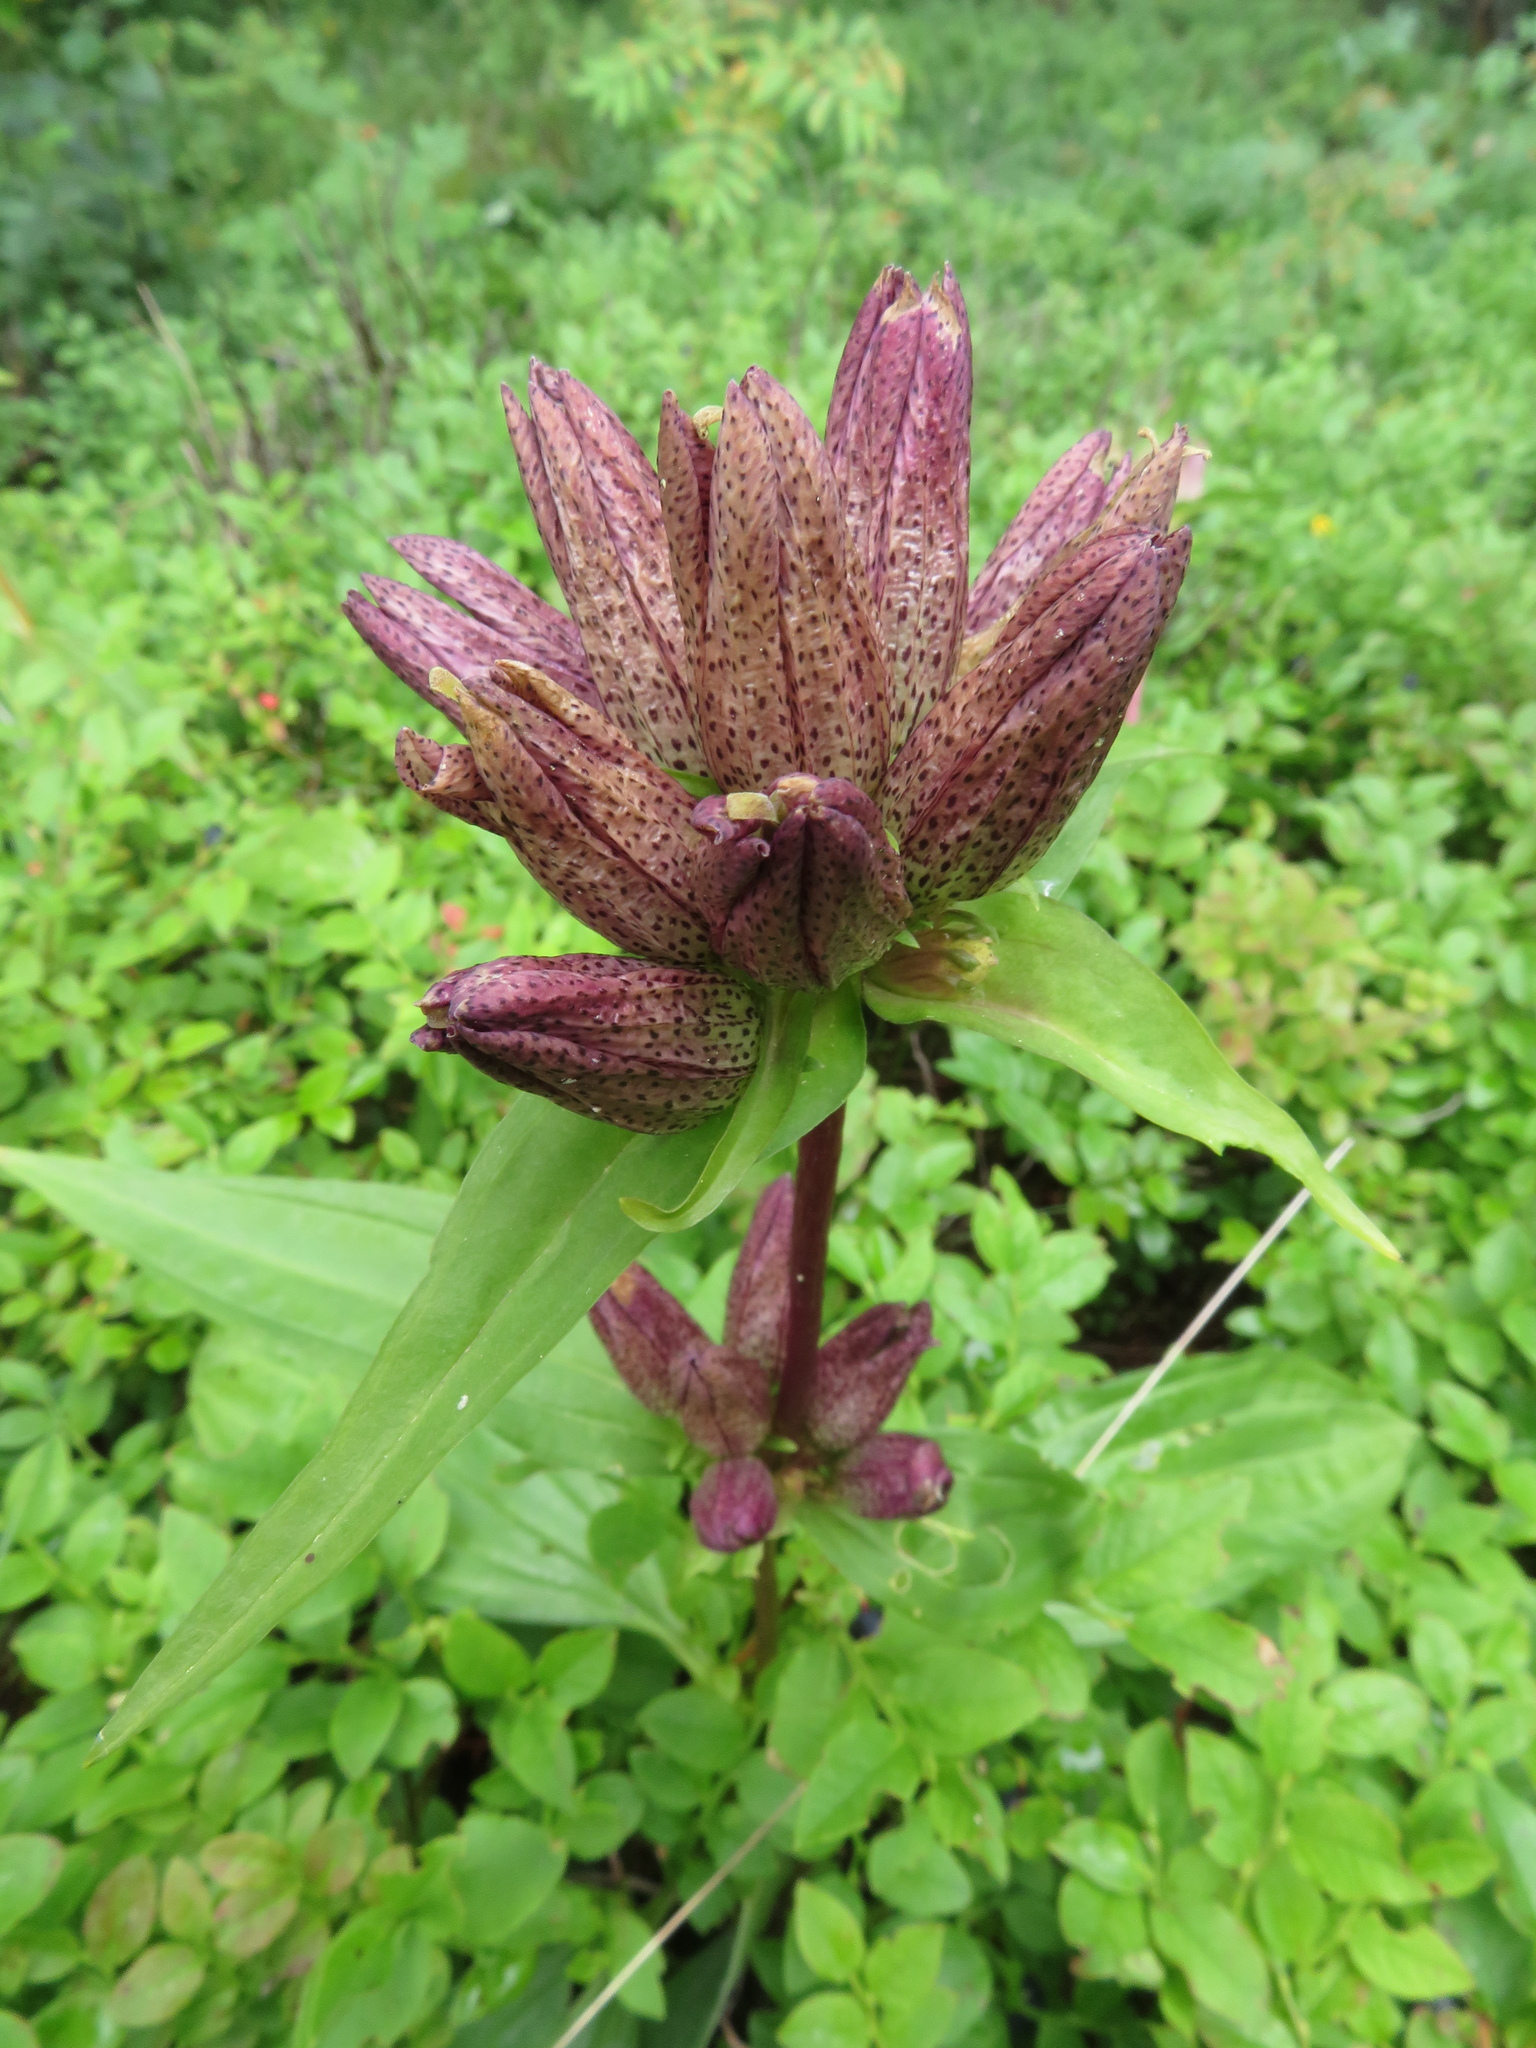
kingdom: Plantae
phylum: Tracheophyta
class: Magnoliopsida
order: Gentianales
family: Gentianaceae
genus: Gentiana
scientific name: Gentiana pannonica
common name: Hungarian gentian
